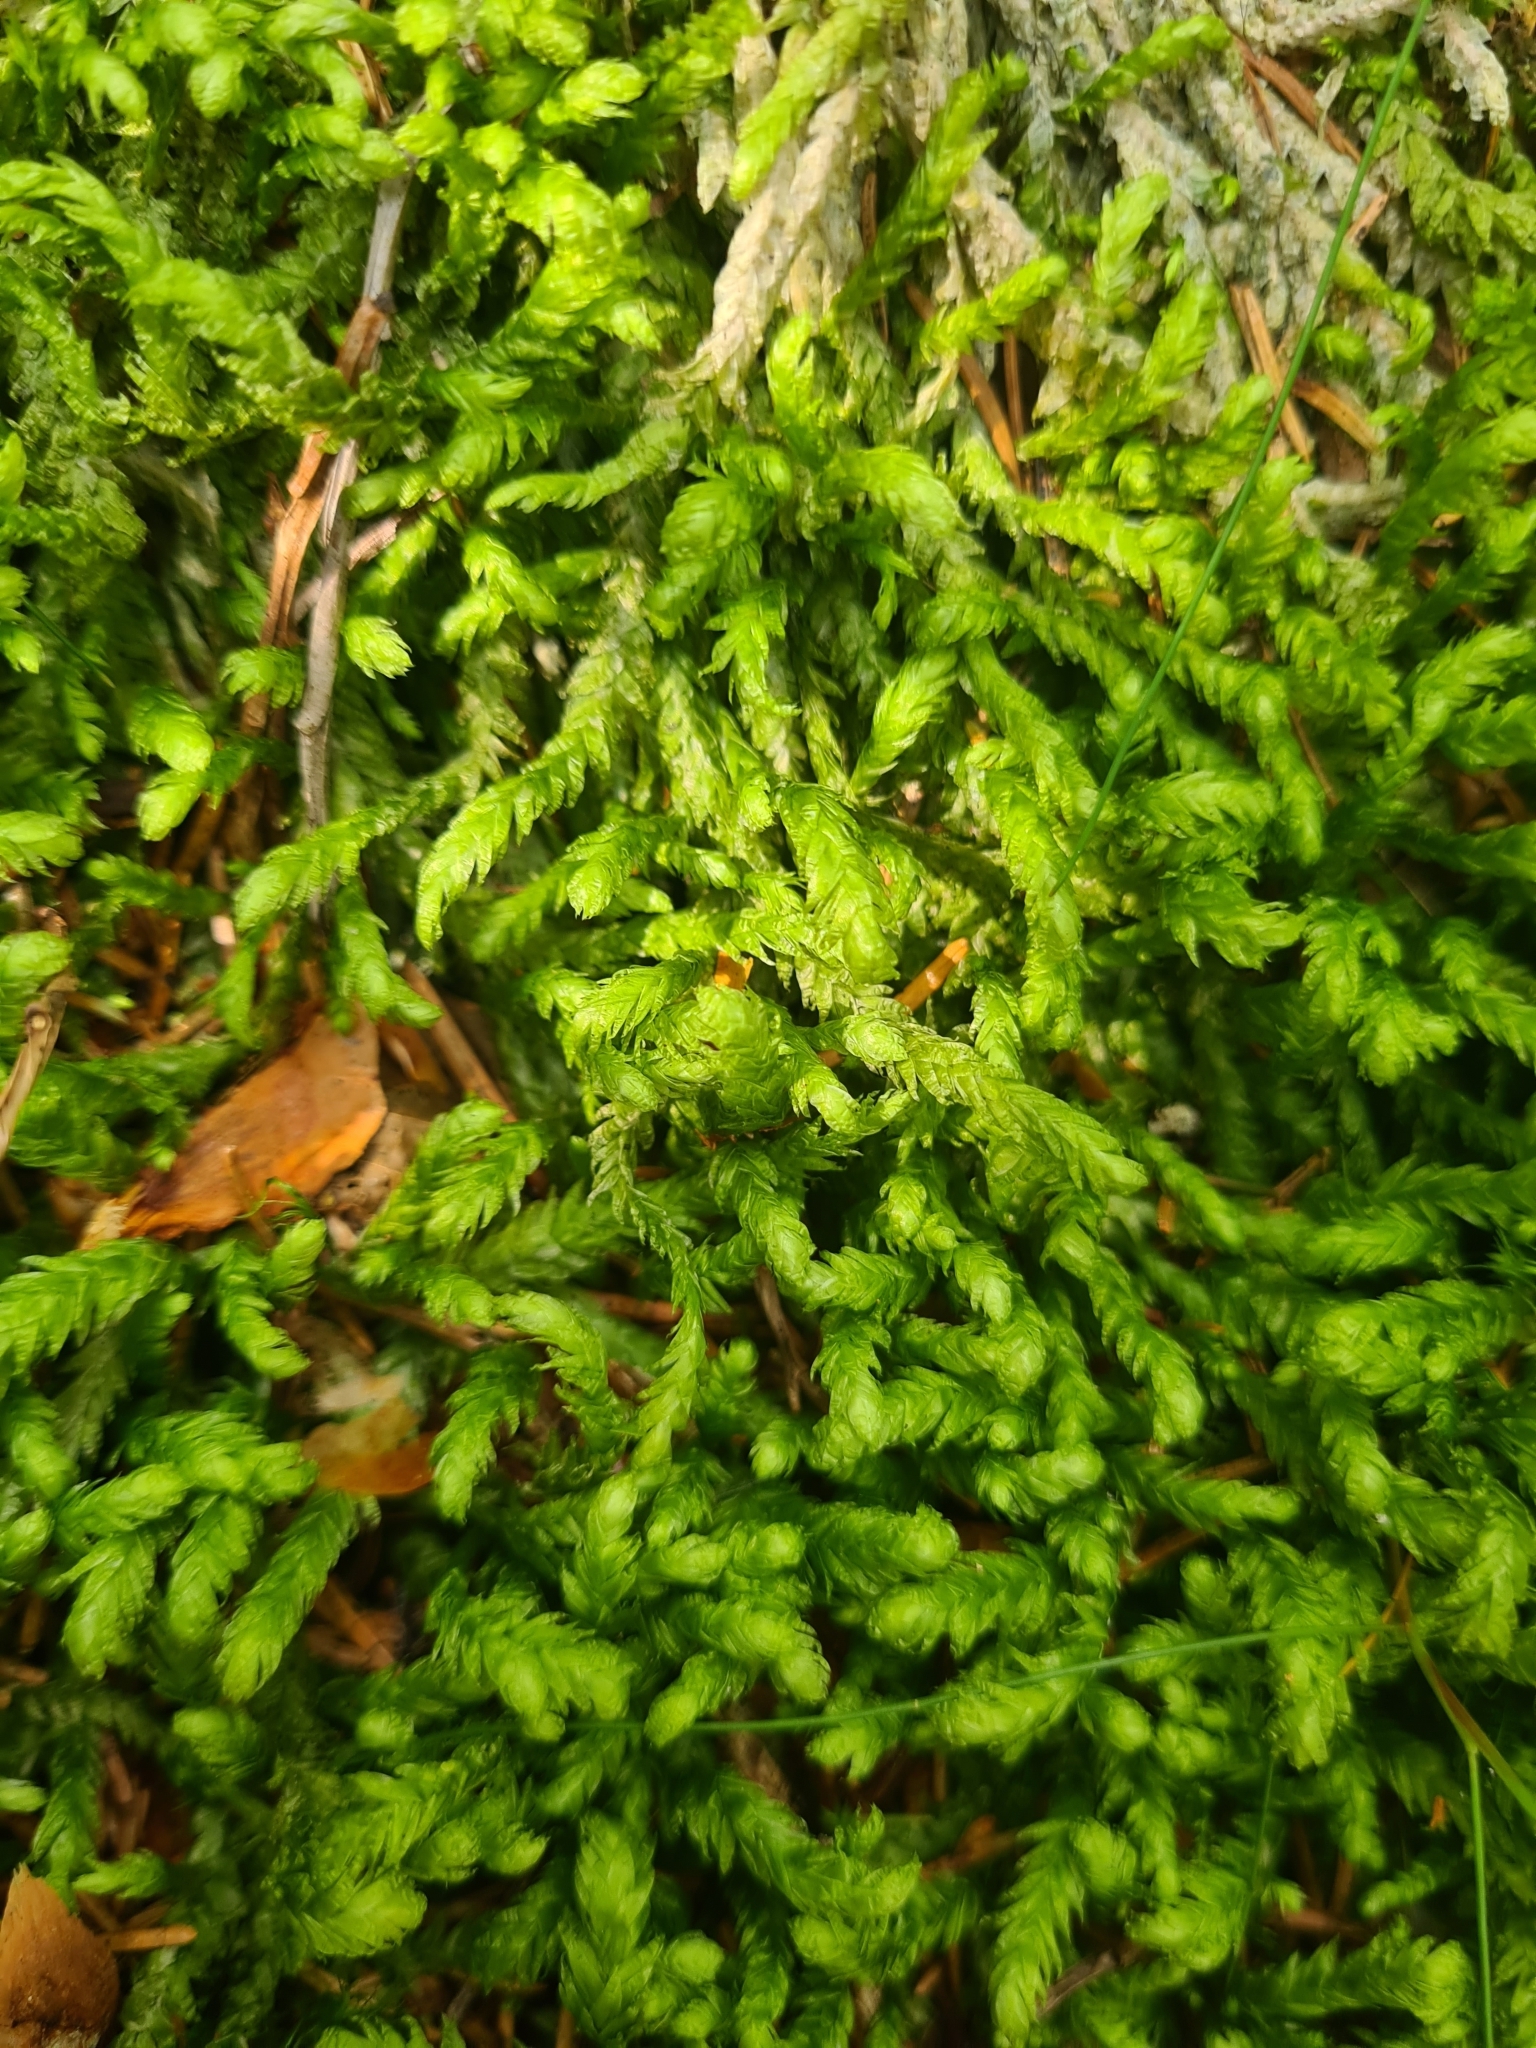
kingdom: Plantae
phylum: Bryophyta
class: Bryopsida
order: Hypnales
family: Plagiotheciaceae
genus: Plagiothecium
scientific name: Plagiothecium undulatum
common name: Waved silk-moss
